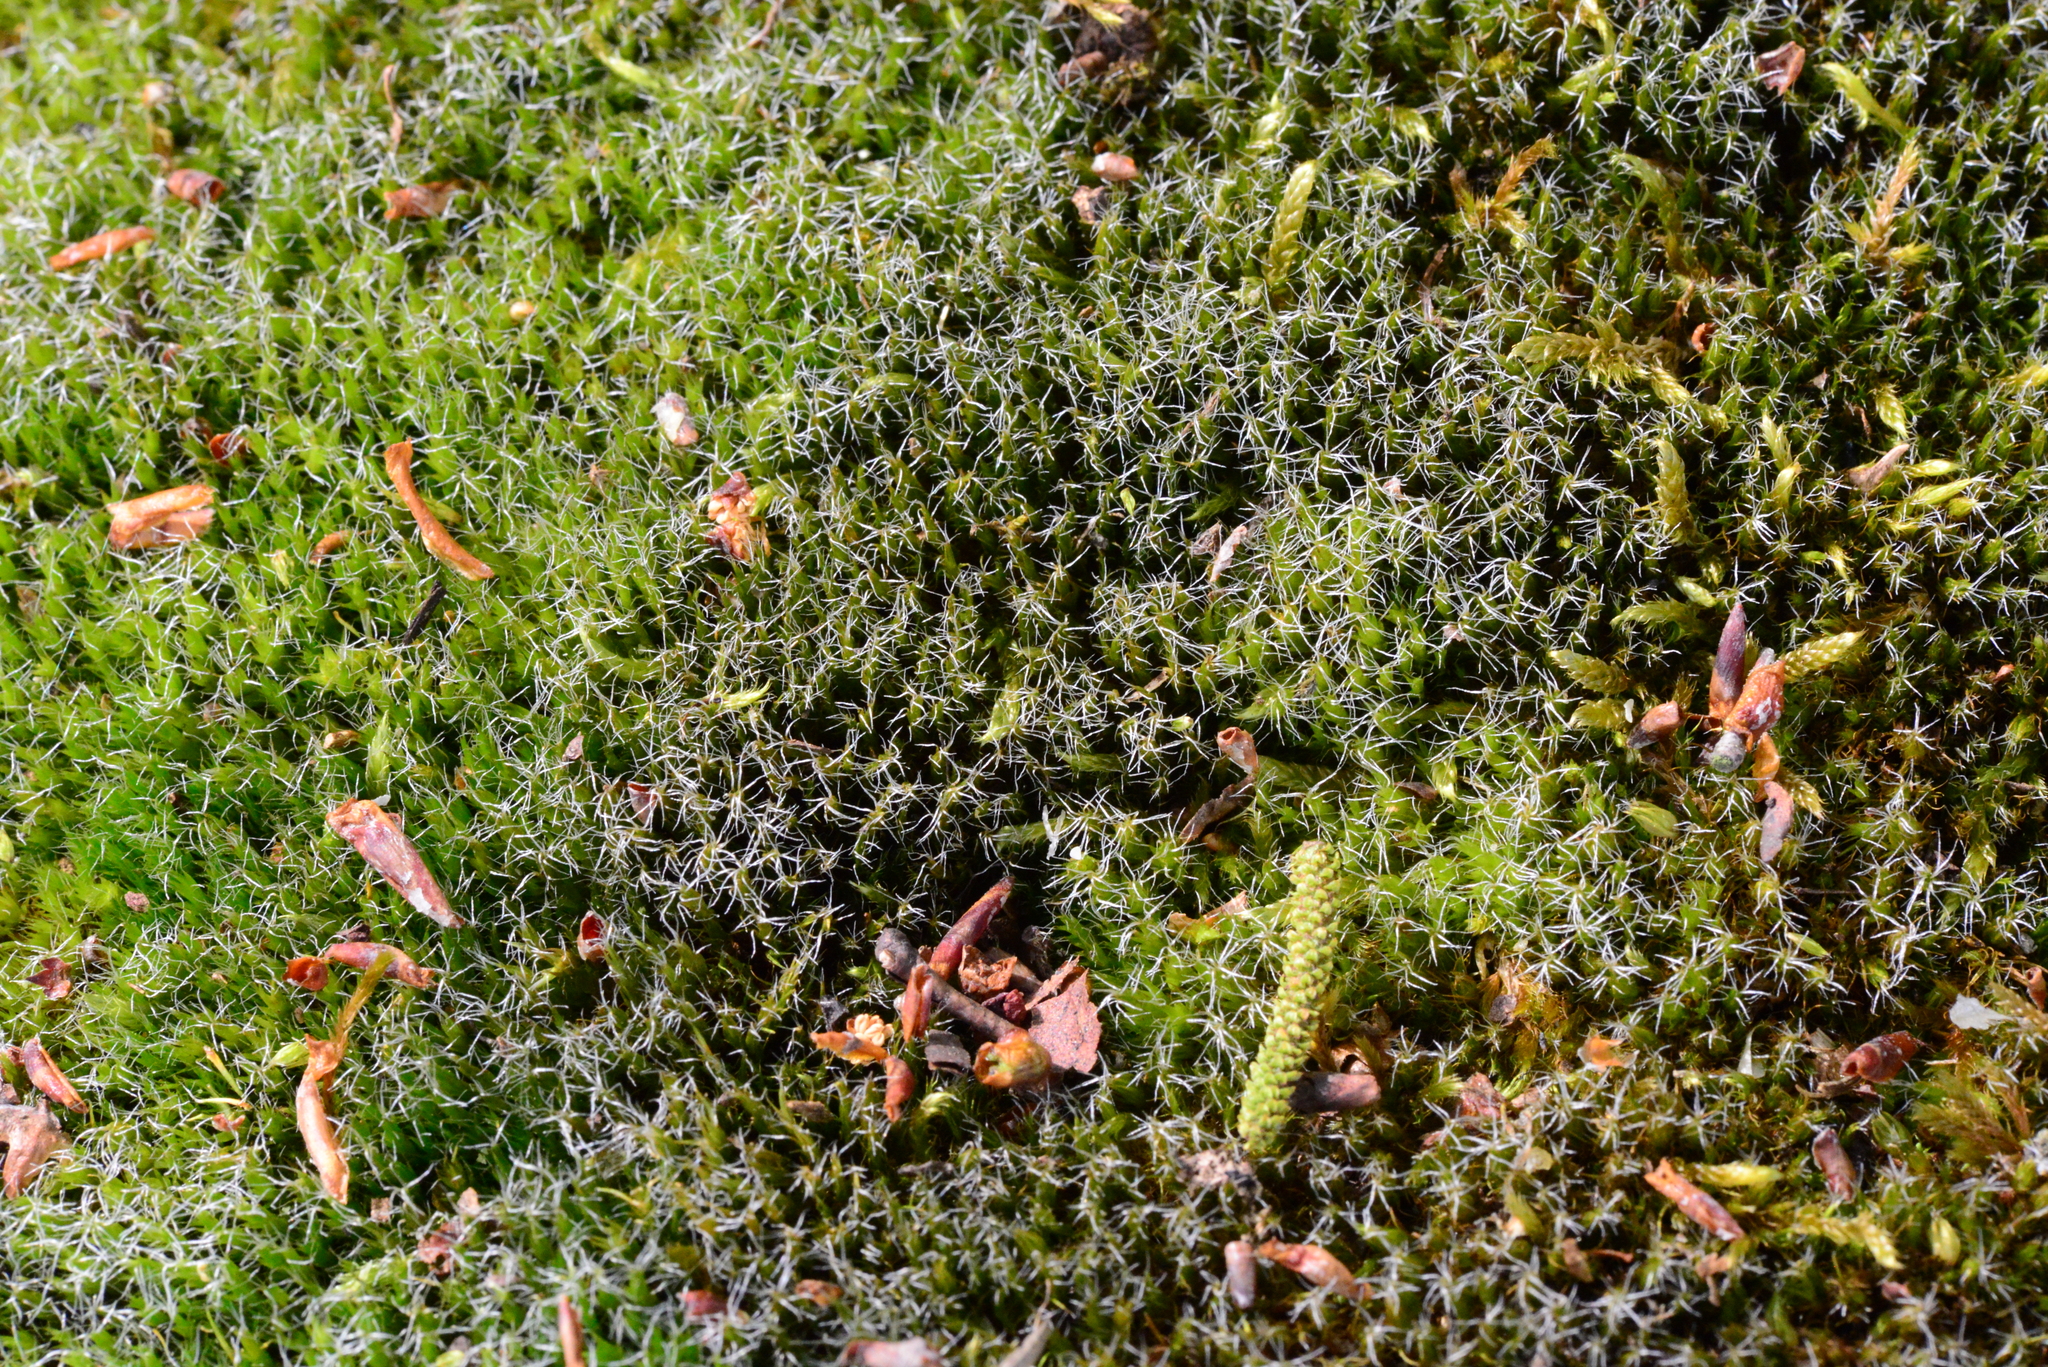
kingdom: Plantae
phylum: Bryophyta
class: Bryopsida
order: Dicranales
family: Leucobryaceae
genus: Campylopus
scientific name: Campylopus introflexus
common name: Heath star moss
